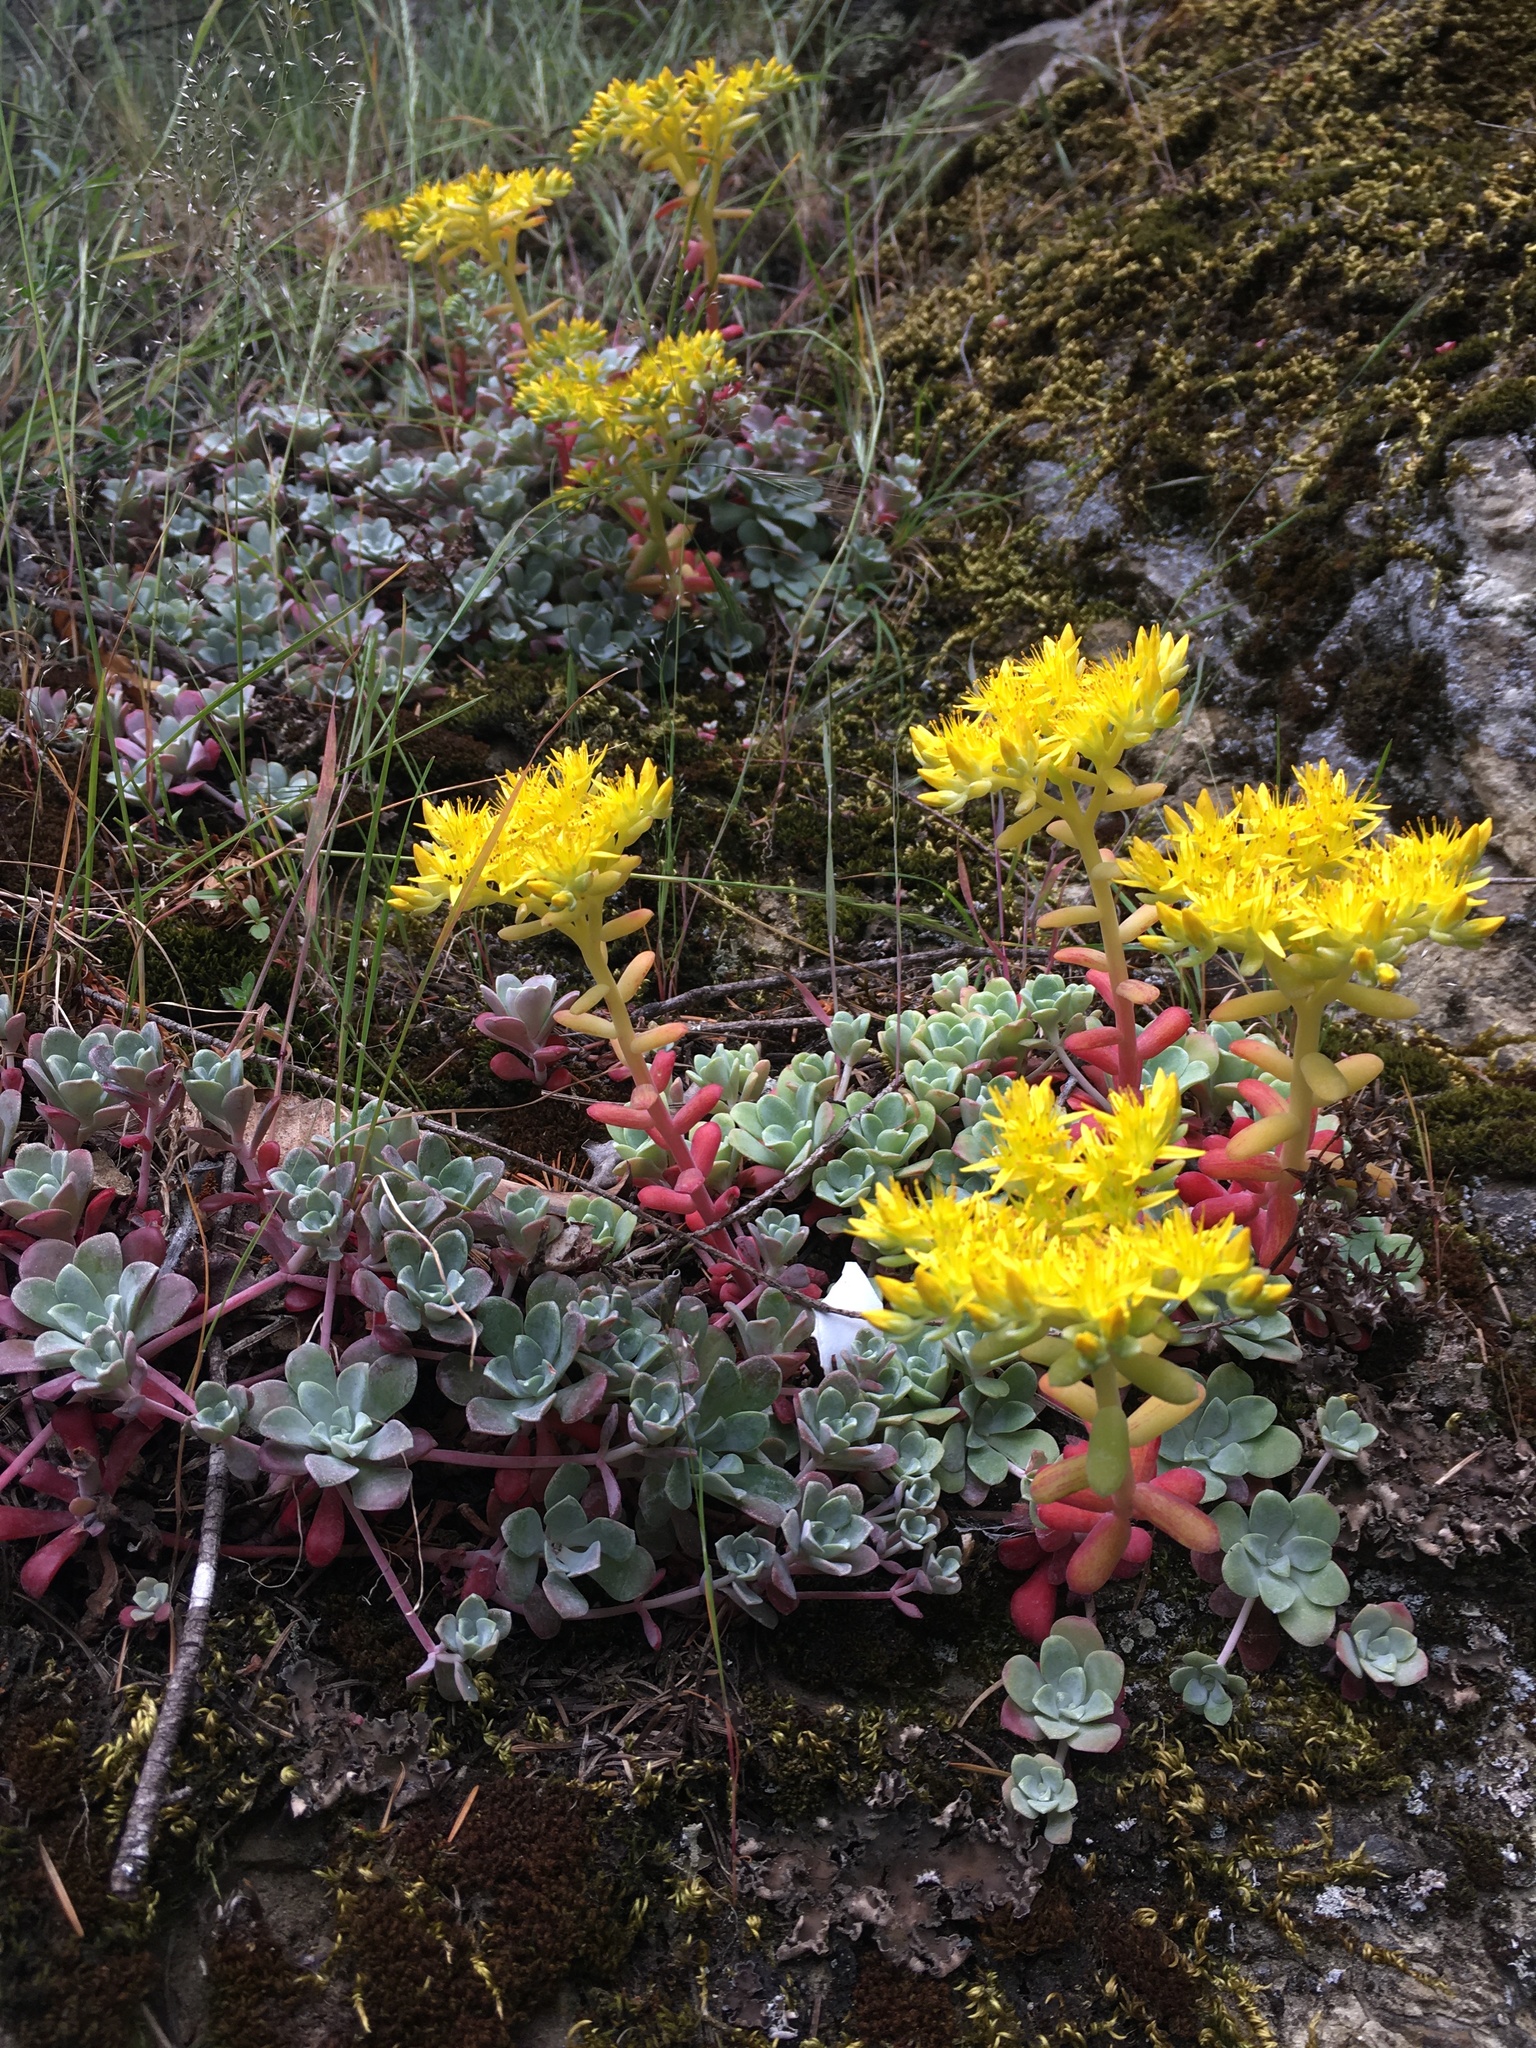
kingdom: Plantae
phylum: Tracheophyta
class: Magnoliopsida
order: Saxifragales
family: Crassulaceae
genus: Sedum
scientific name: Sedum spathulifolium
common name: Colorado stonecrop
